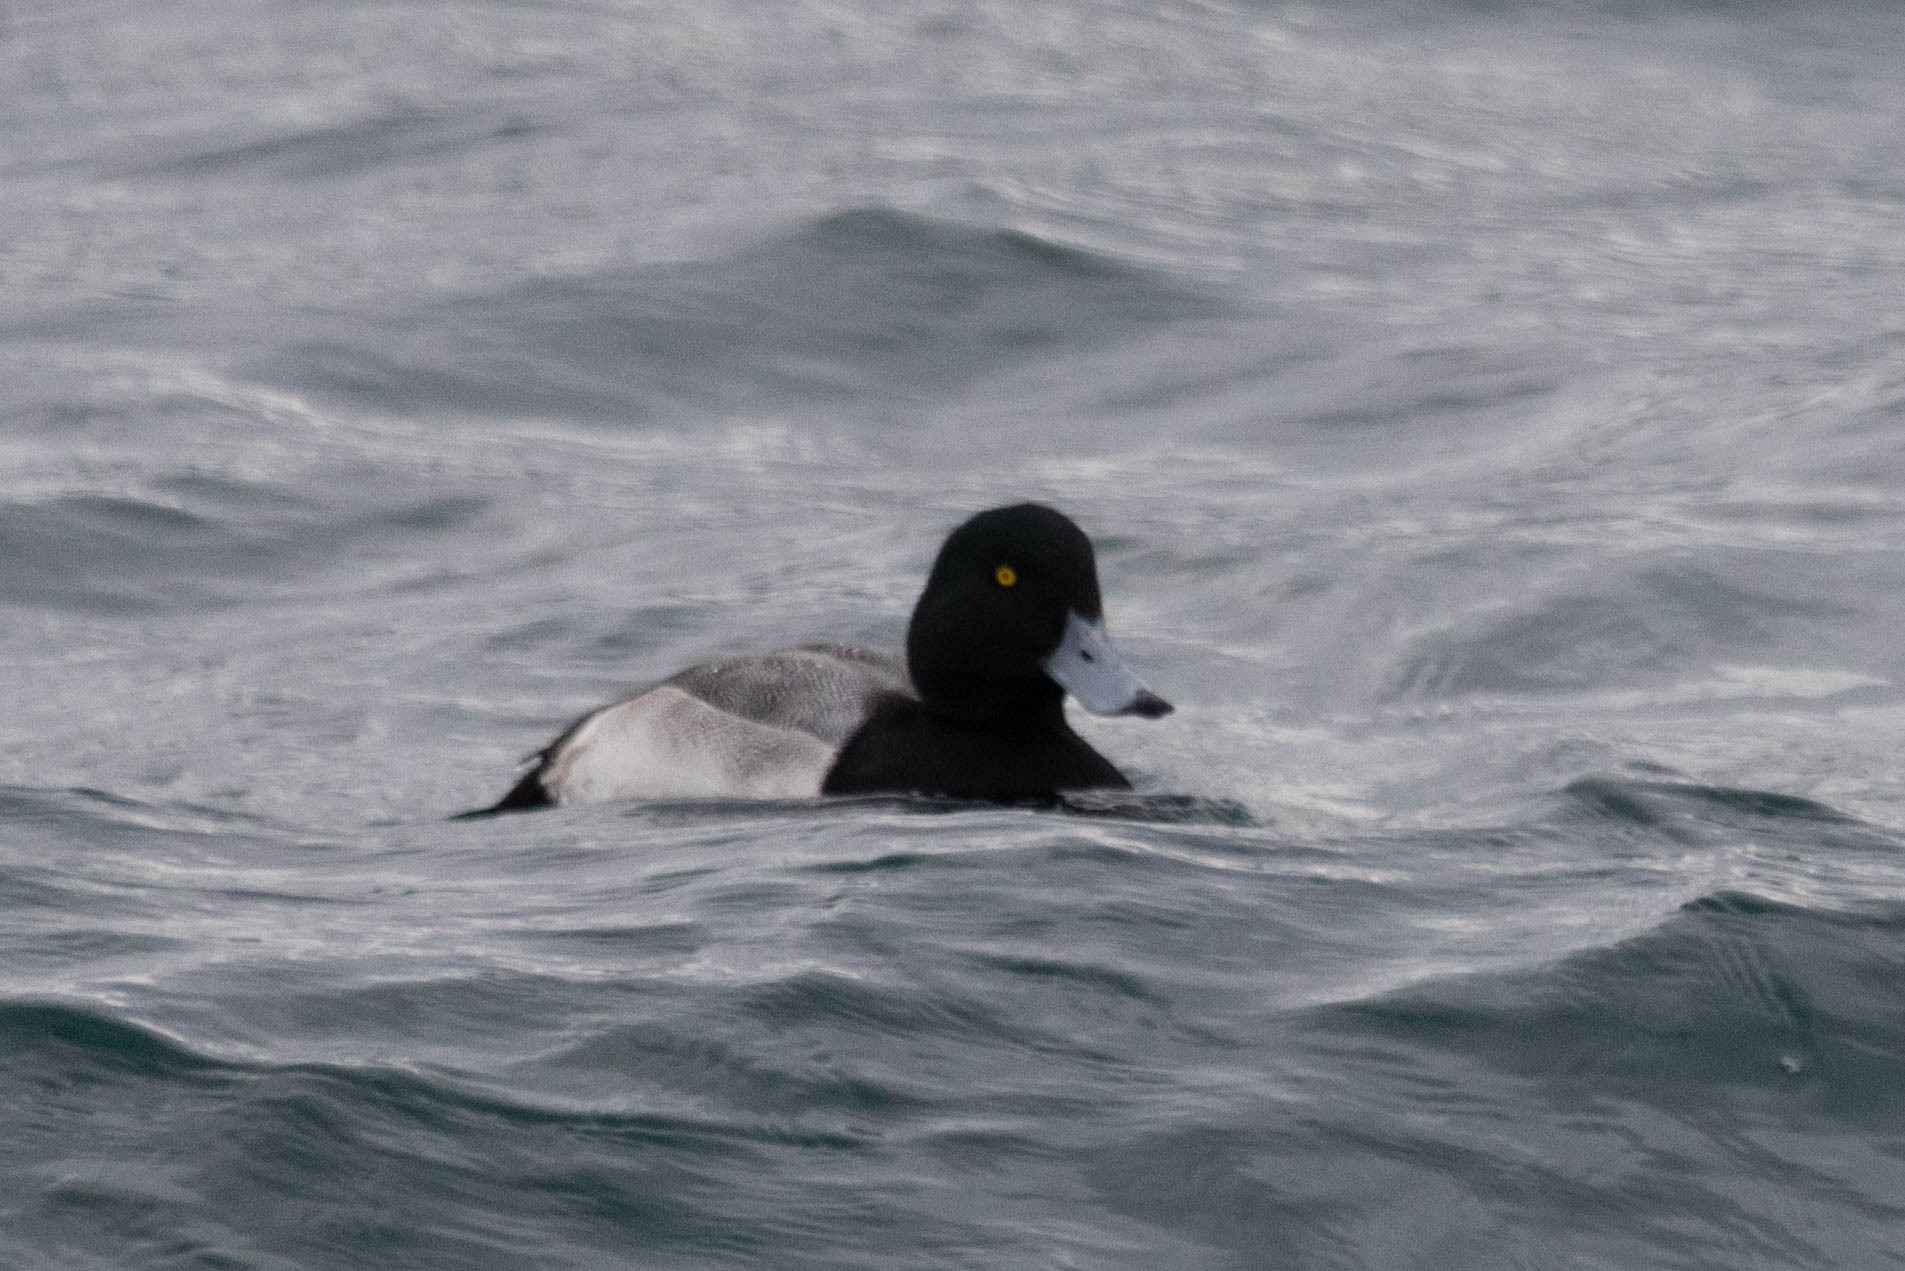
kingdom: Animalia
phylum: Chordata
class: Aves
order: Anseriformes
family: Anatidae
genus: Aythya
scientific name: Aythya marila
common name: Greater scaup
